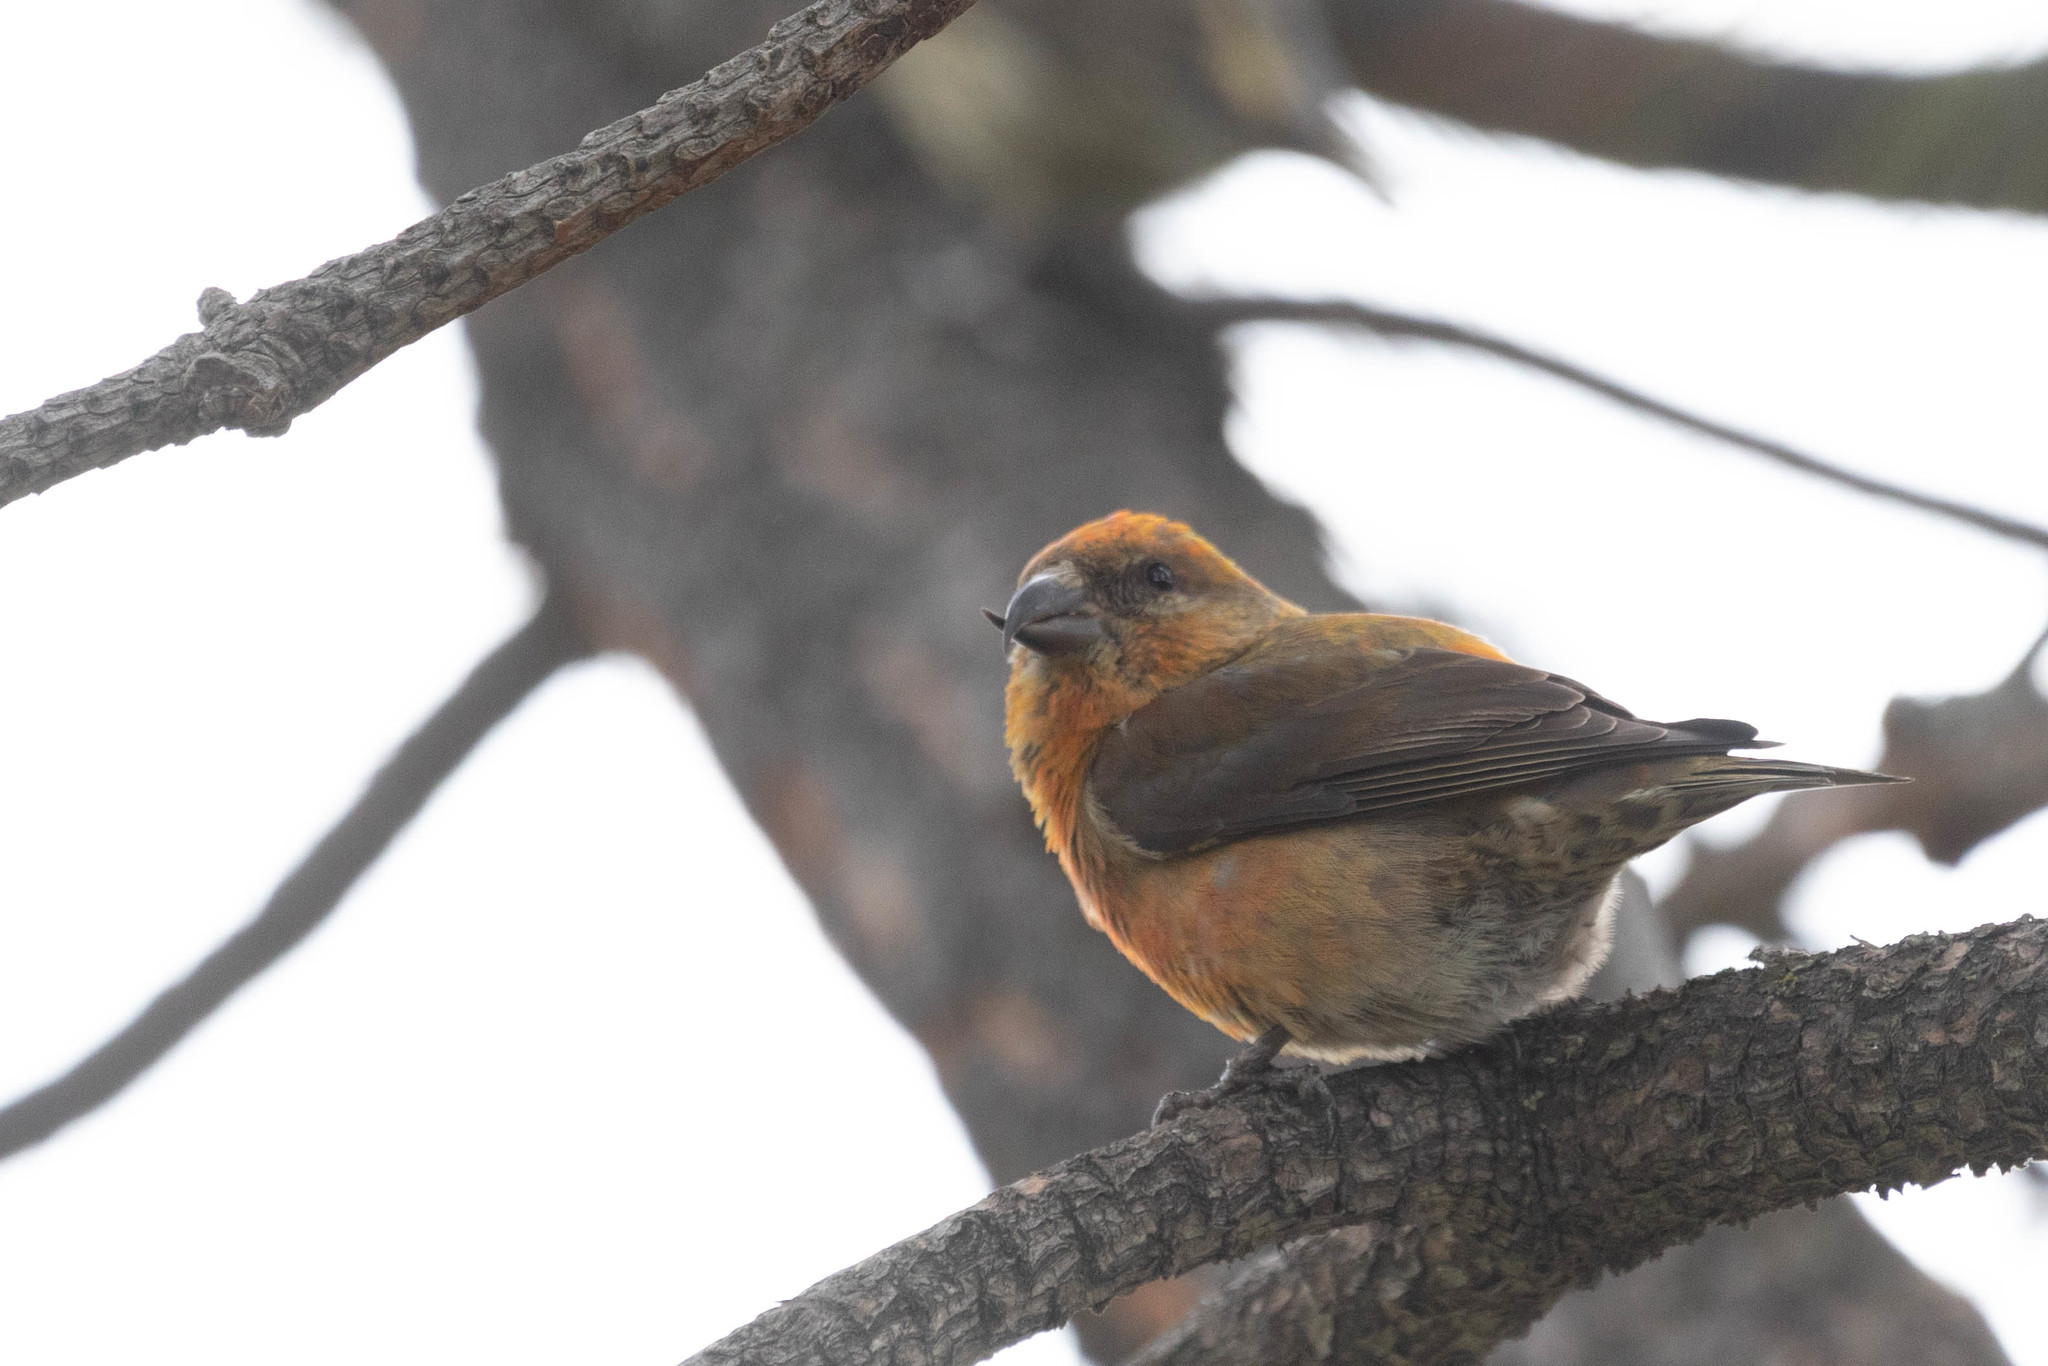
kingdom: Animalia
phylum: Chordata
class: Aves
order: Passeriformes
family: Fringillidae
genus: Loxia
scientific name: Loxia curvirostra
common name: Red crossbill
